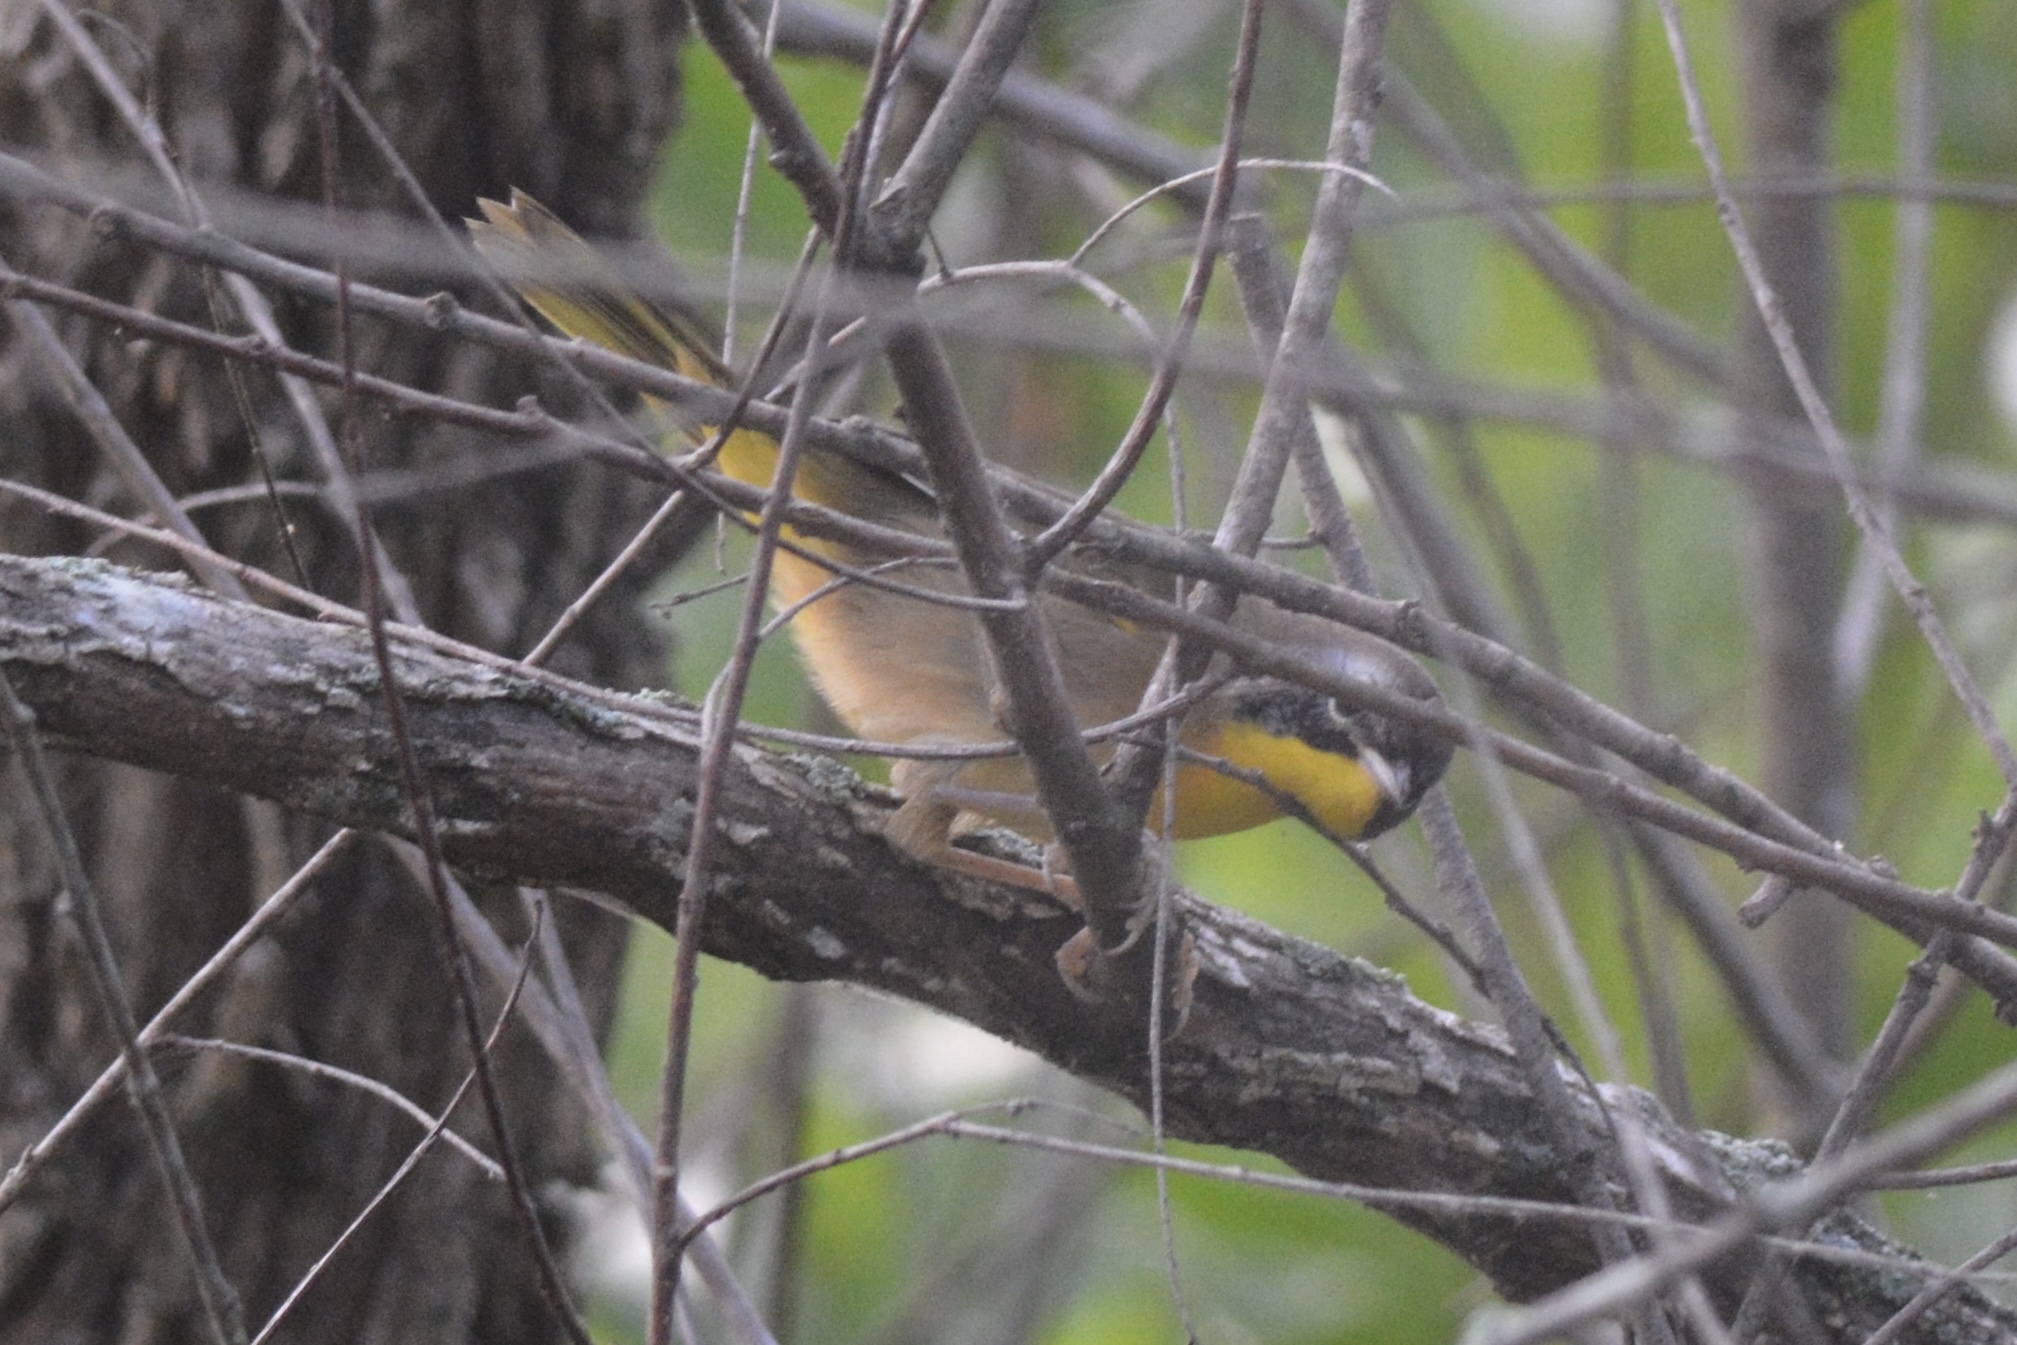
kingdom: Animalia
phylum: Chordata
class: Aves
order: Passeriformes
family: Parulidae
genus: Geothlypis
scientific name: Geothlypis trichas
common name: Common yellowthroat
